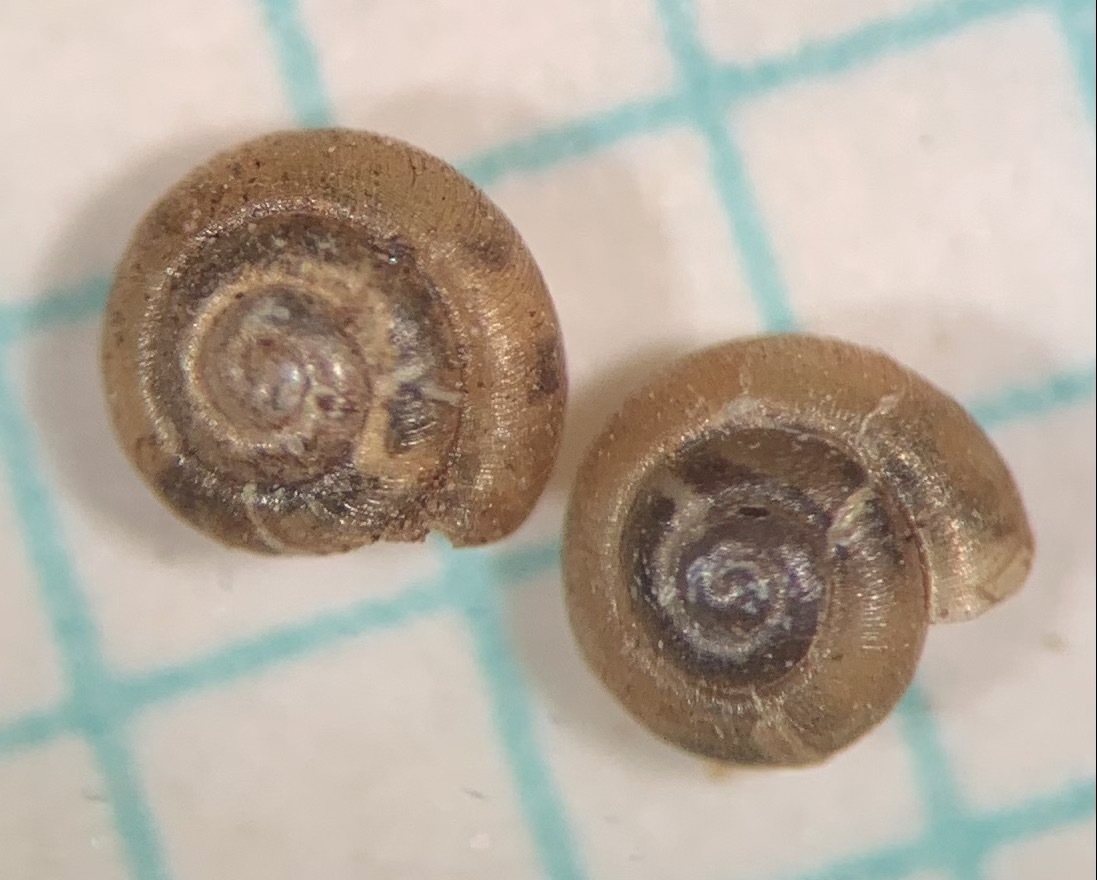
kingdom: Animalia
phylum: Mollusca
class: Gastropoda
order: Stylommatophora
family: Punctidae
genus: Punctum
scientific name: Punctum pygmaeum
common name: Dwarf snail
